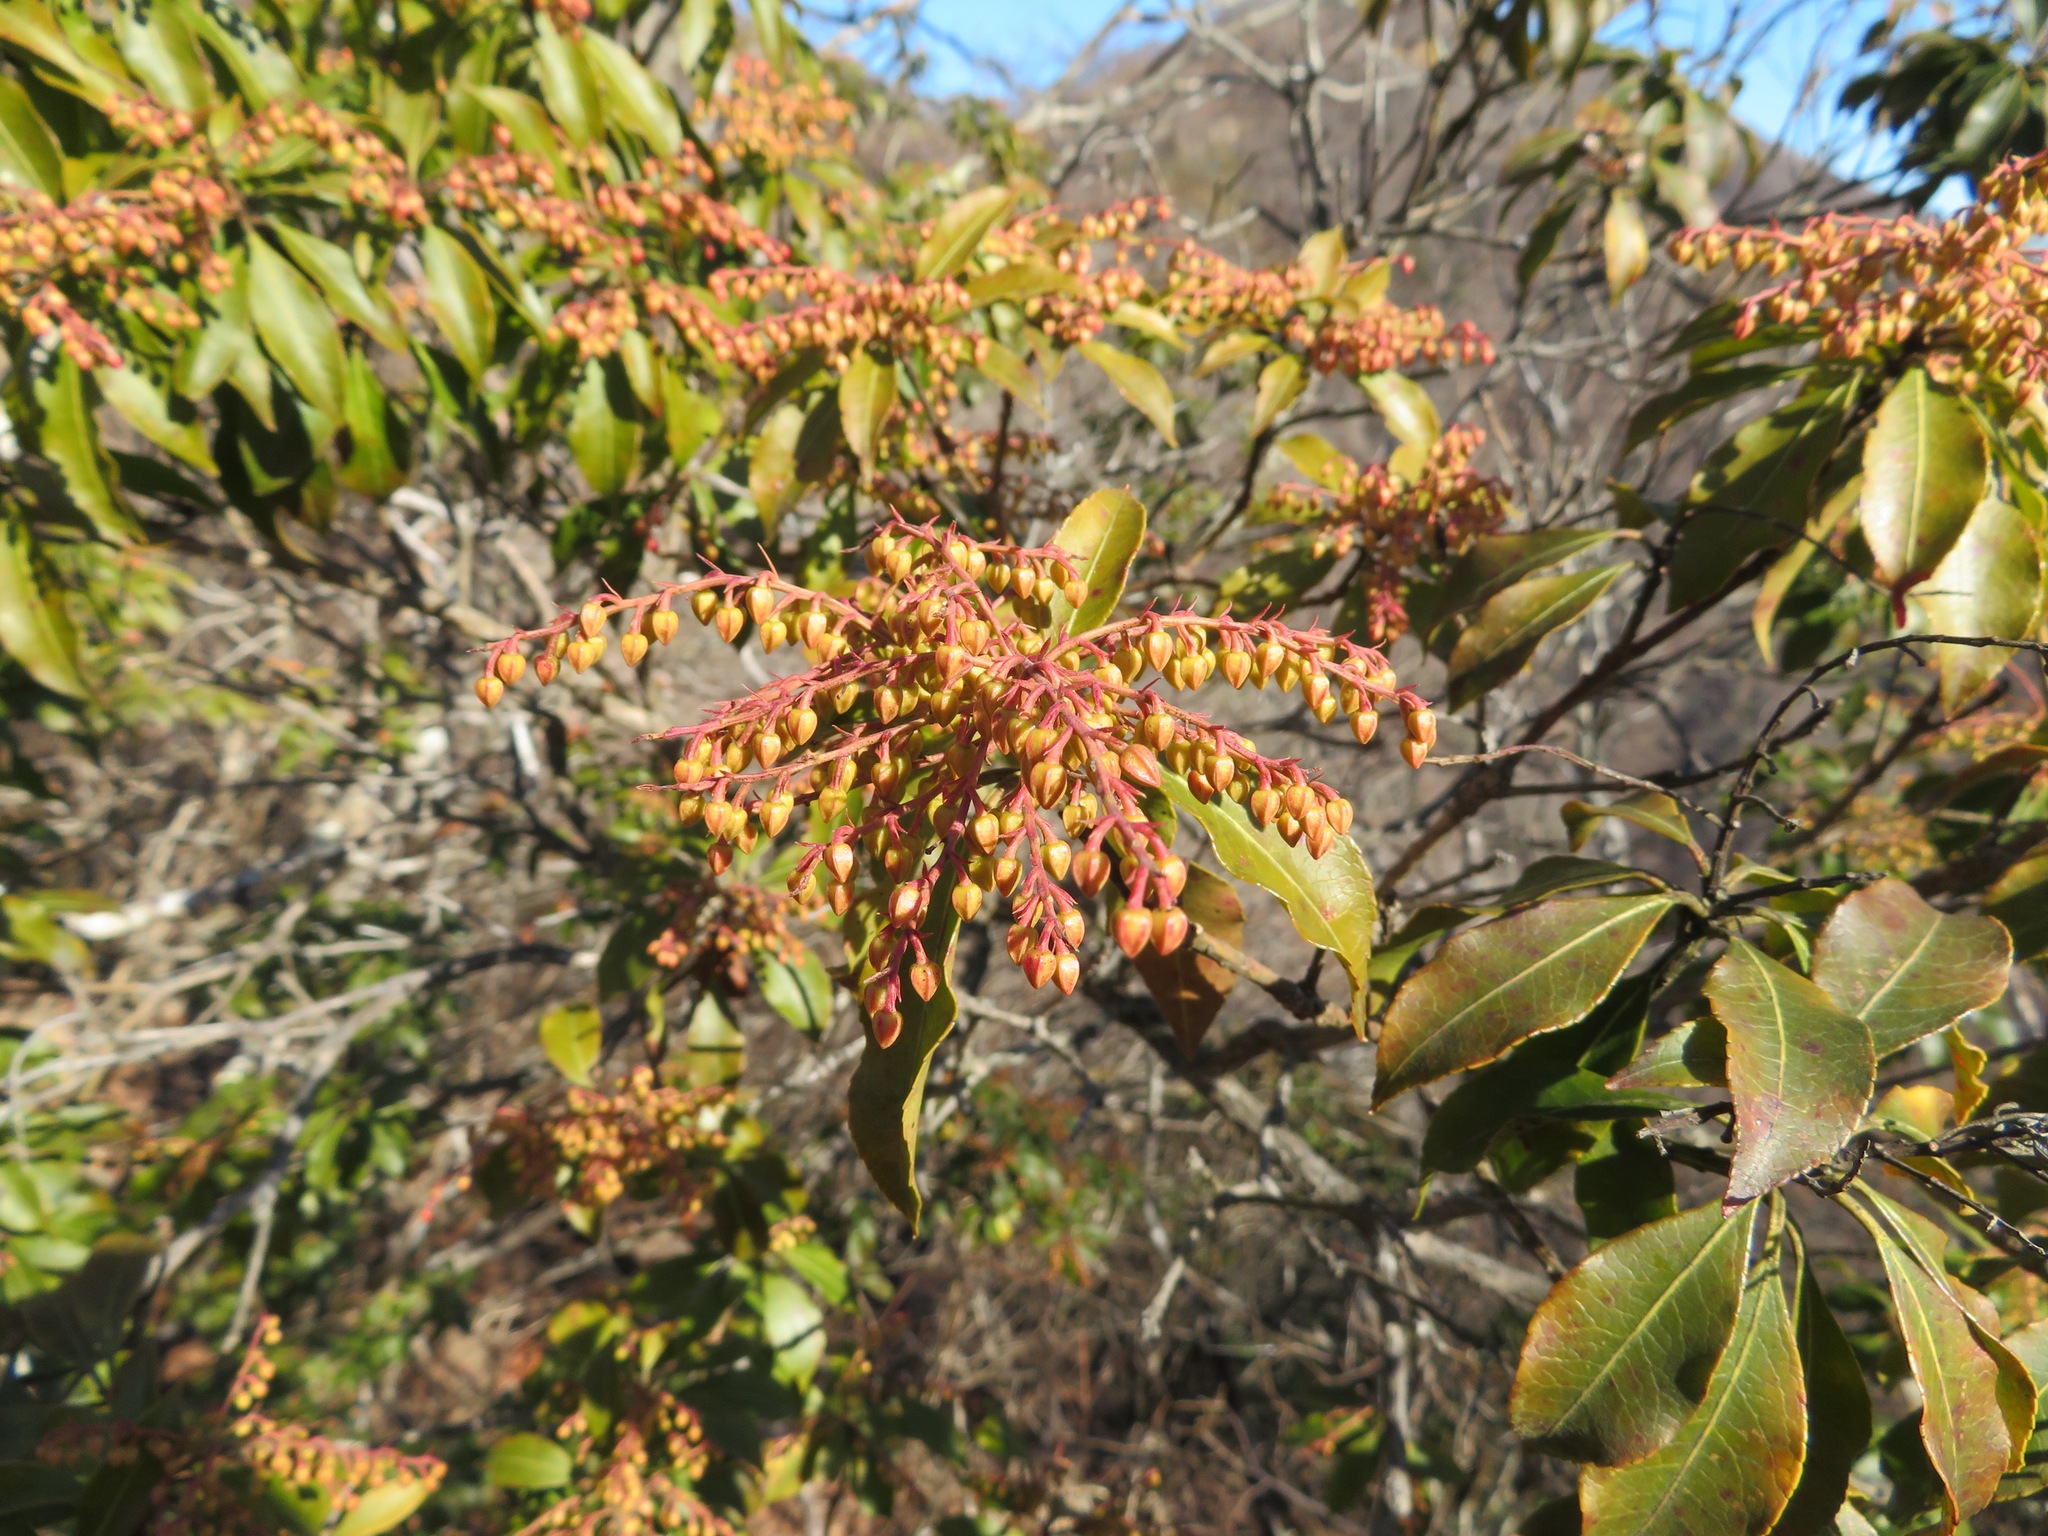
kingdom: Plantae
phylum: Tracheophyta
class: Magnoliopsida
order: Ericales
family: Ericaceae
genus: Pieris
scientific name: Pieris japonica
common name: Japanese pieris
